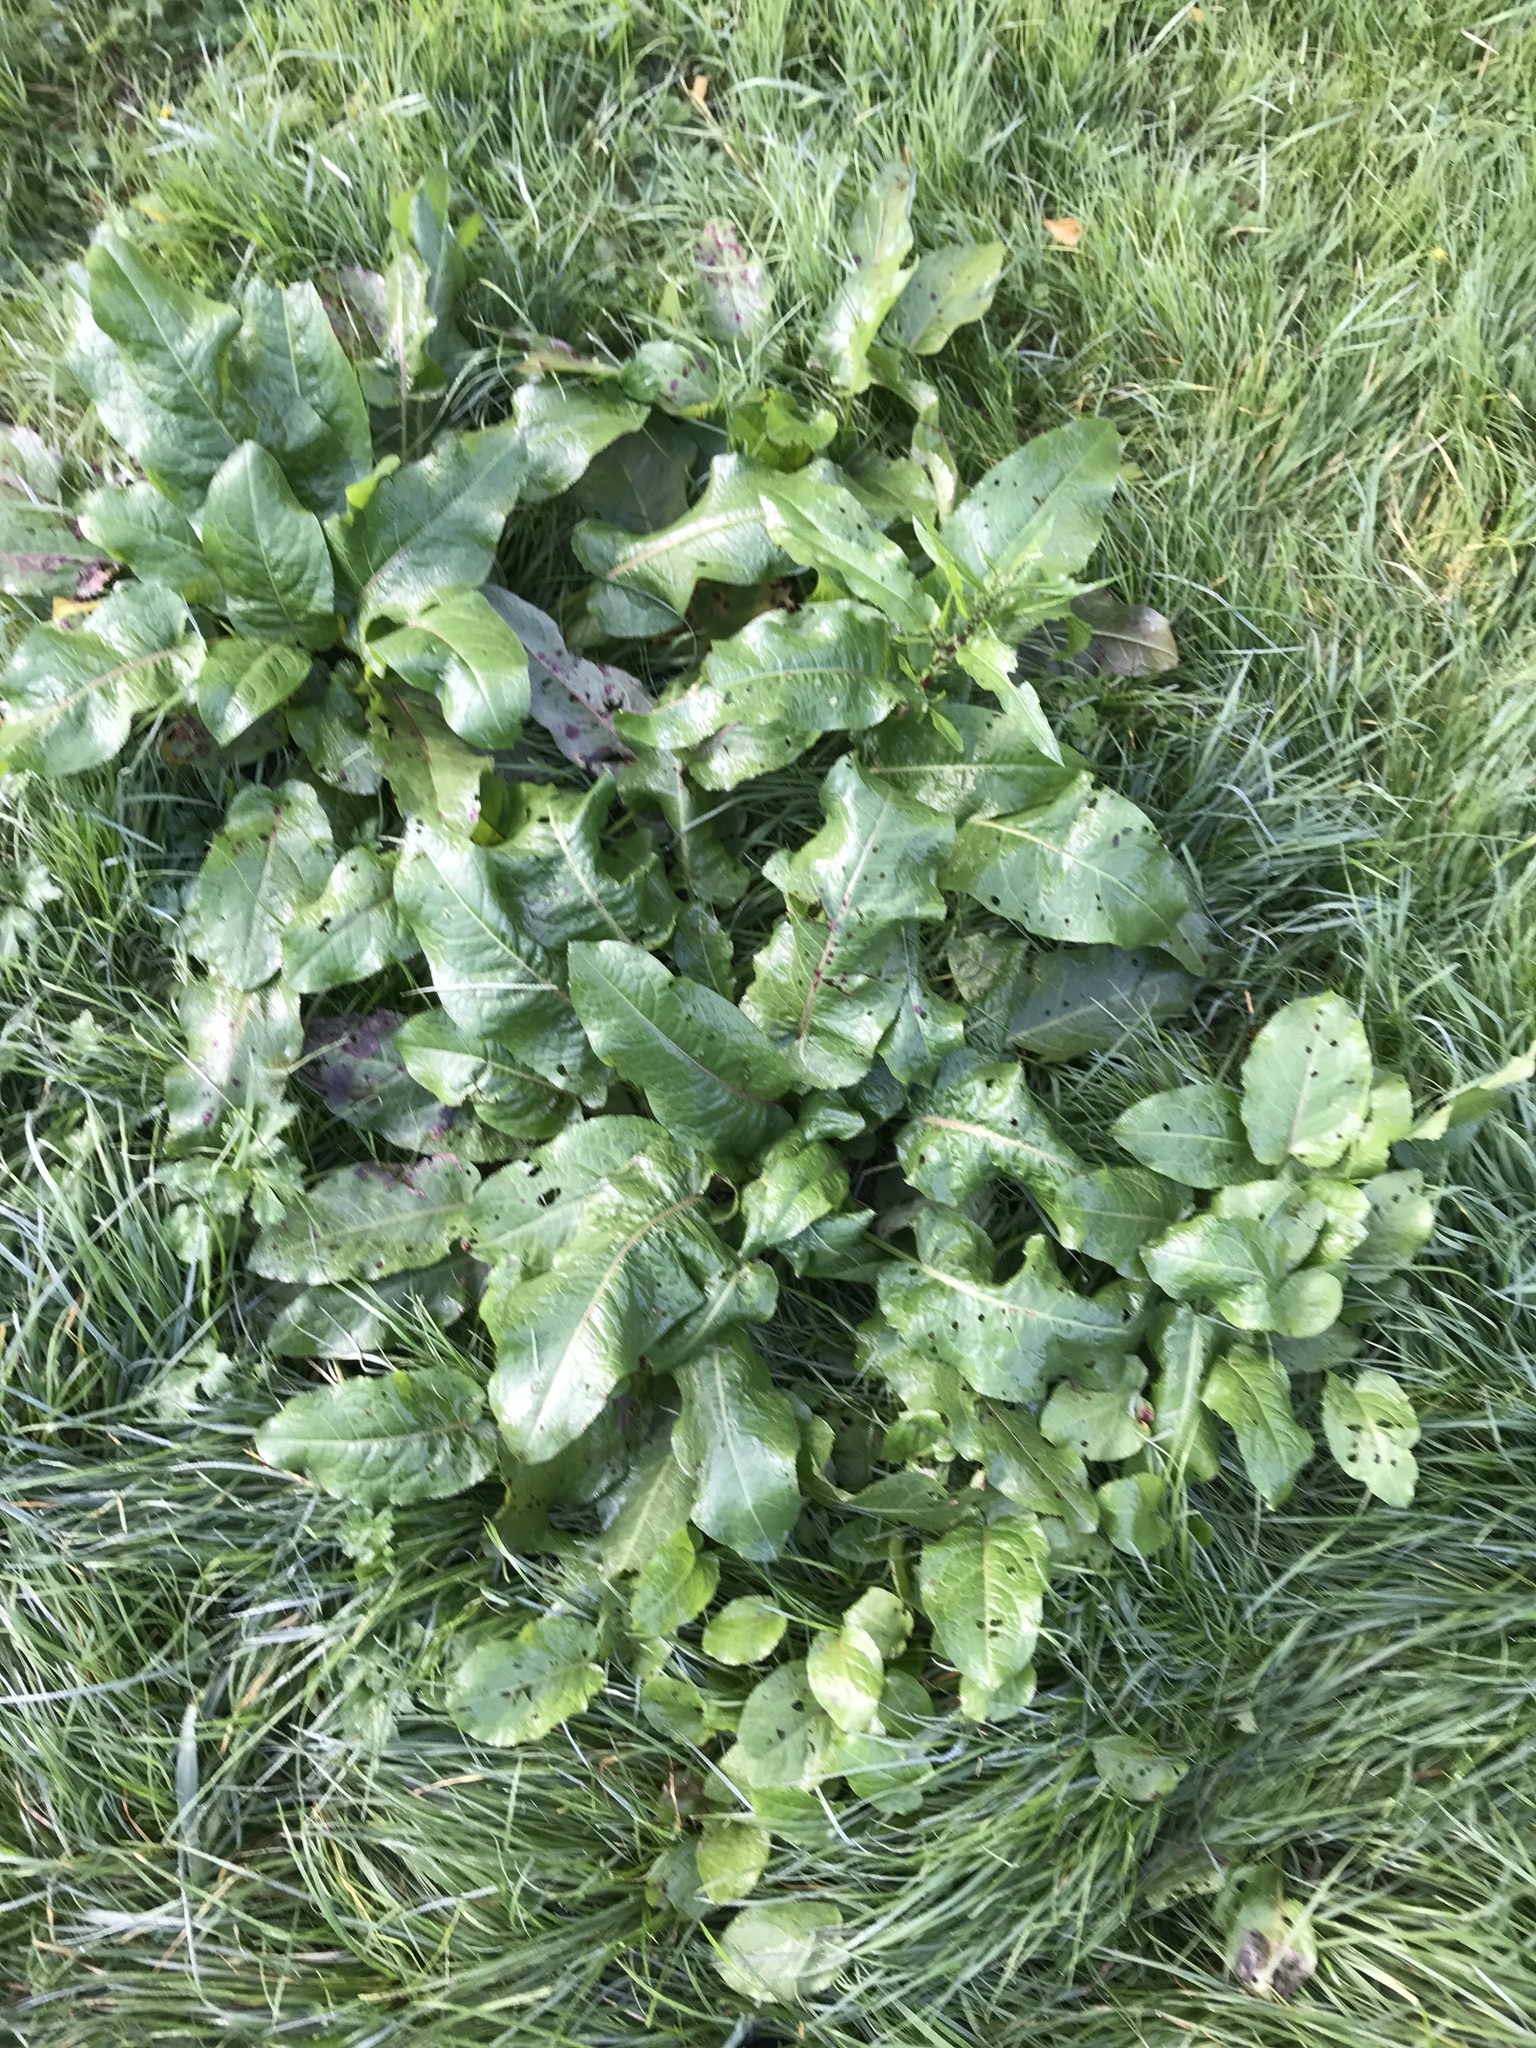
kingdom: Plantae
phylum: Tracheophyta
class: Magnoliopsida
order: Caryophyllales
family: Polygonaceae
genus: Rumex
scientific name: Rumex obtusifolius
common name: Bitter dock
